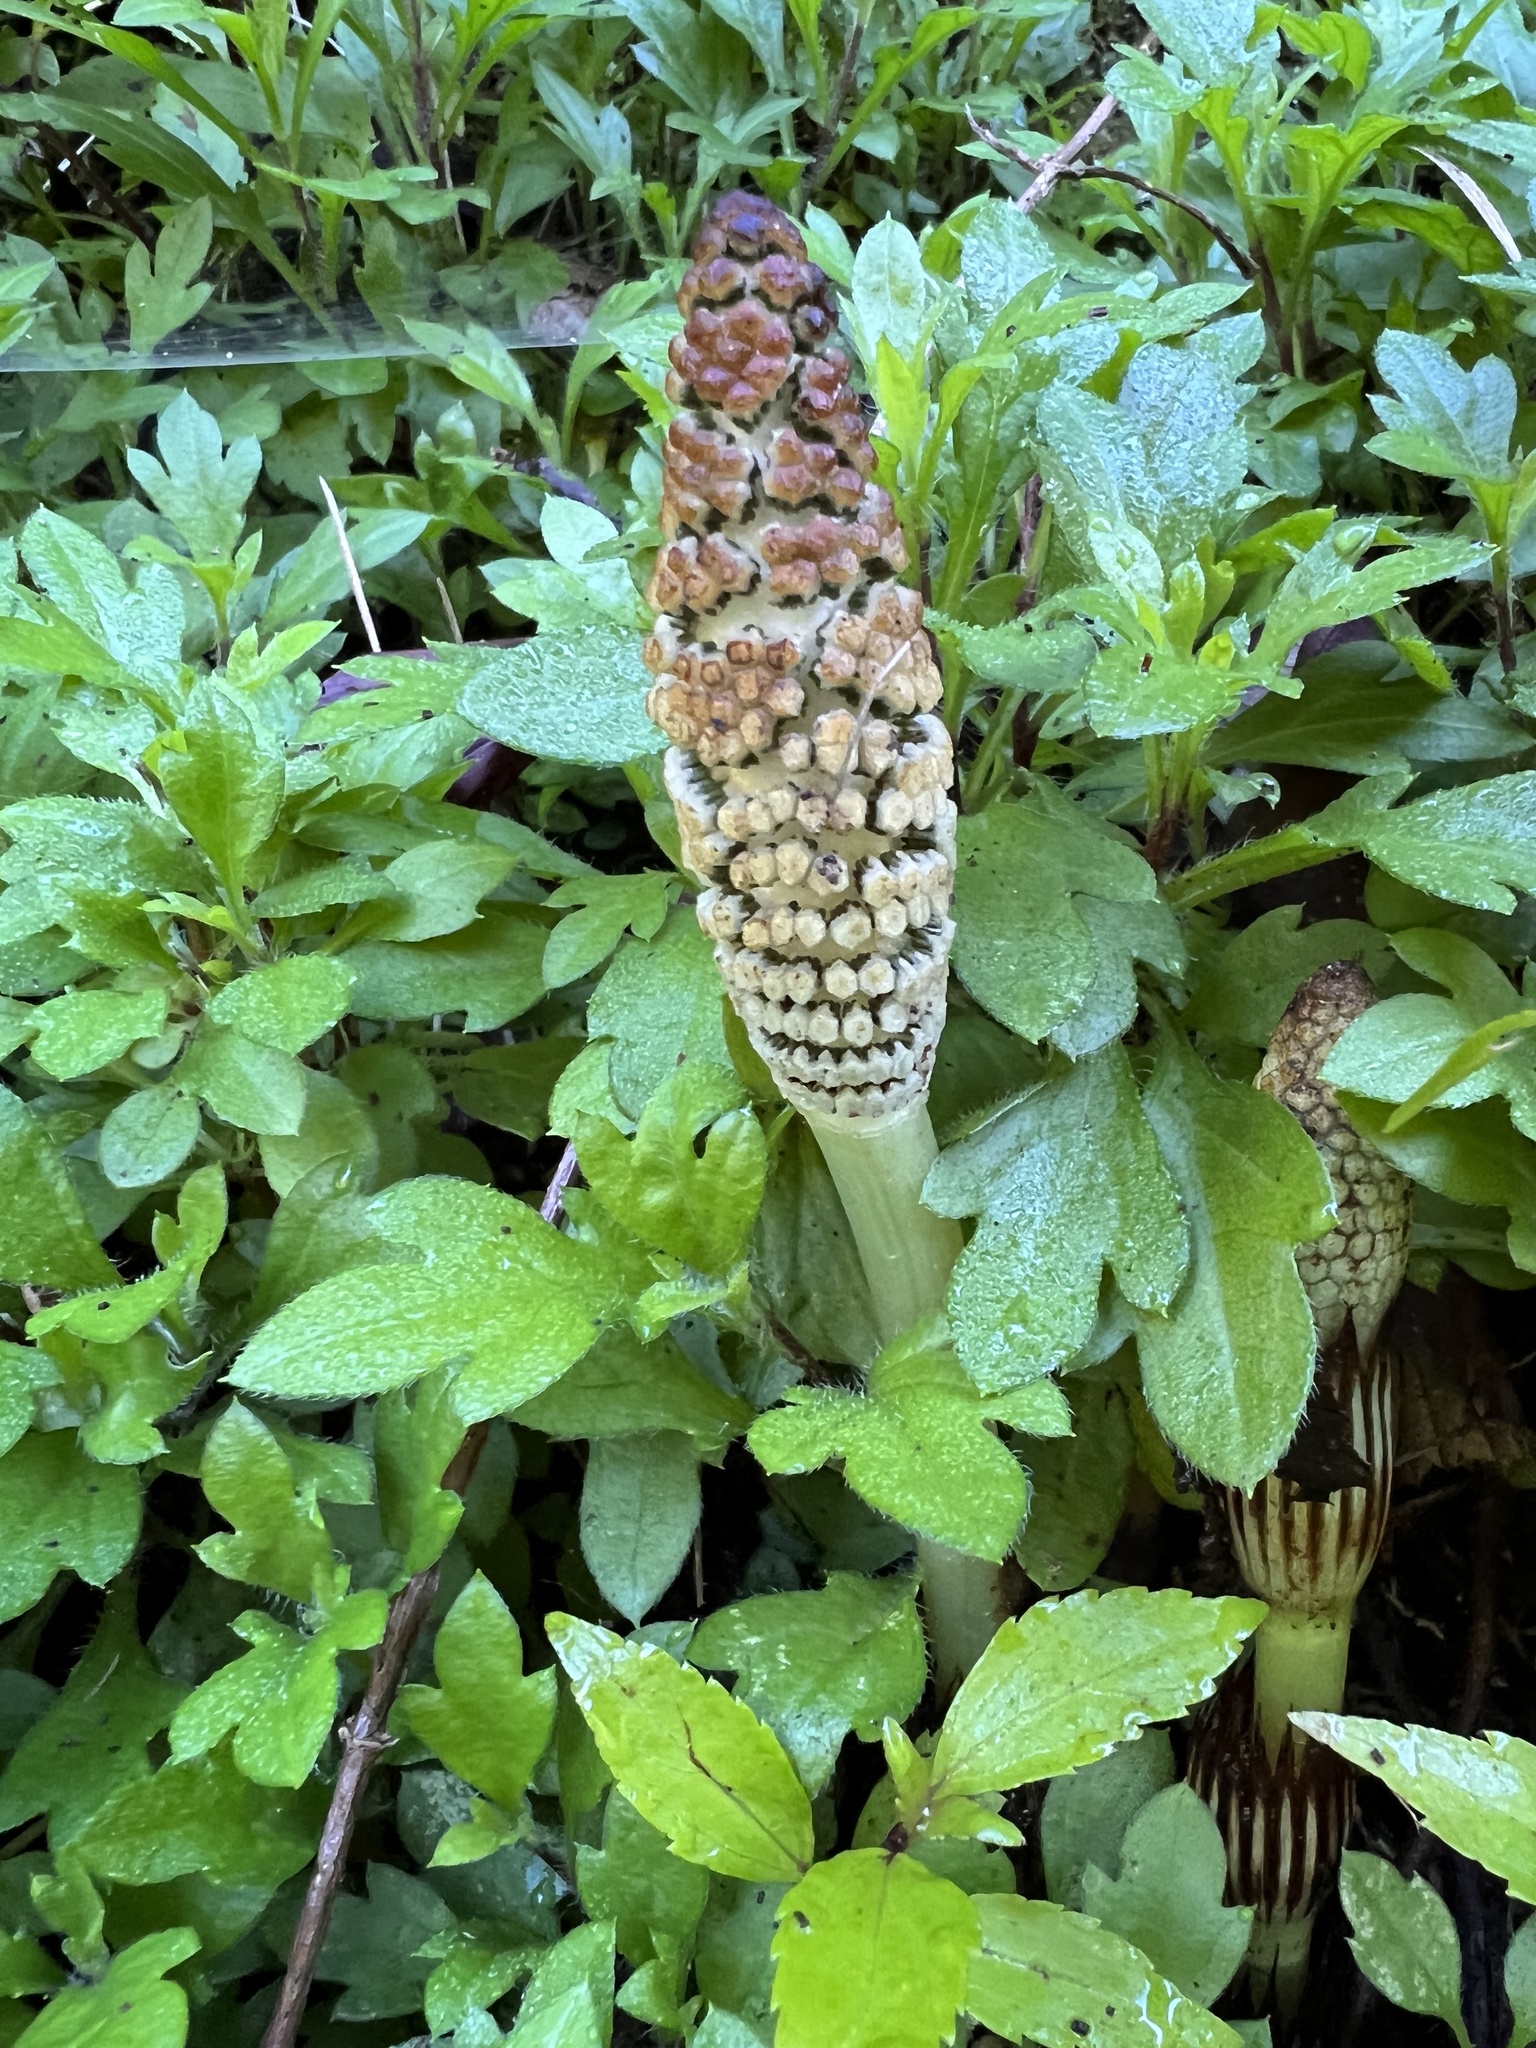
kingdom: Plantae
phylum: Tracheophyta
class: Polypodiopsida
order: Equisetales
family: Equisetaceae
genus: Equisetum
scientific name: Equisetum telmateia
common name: Great horsetail
